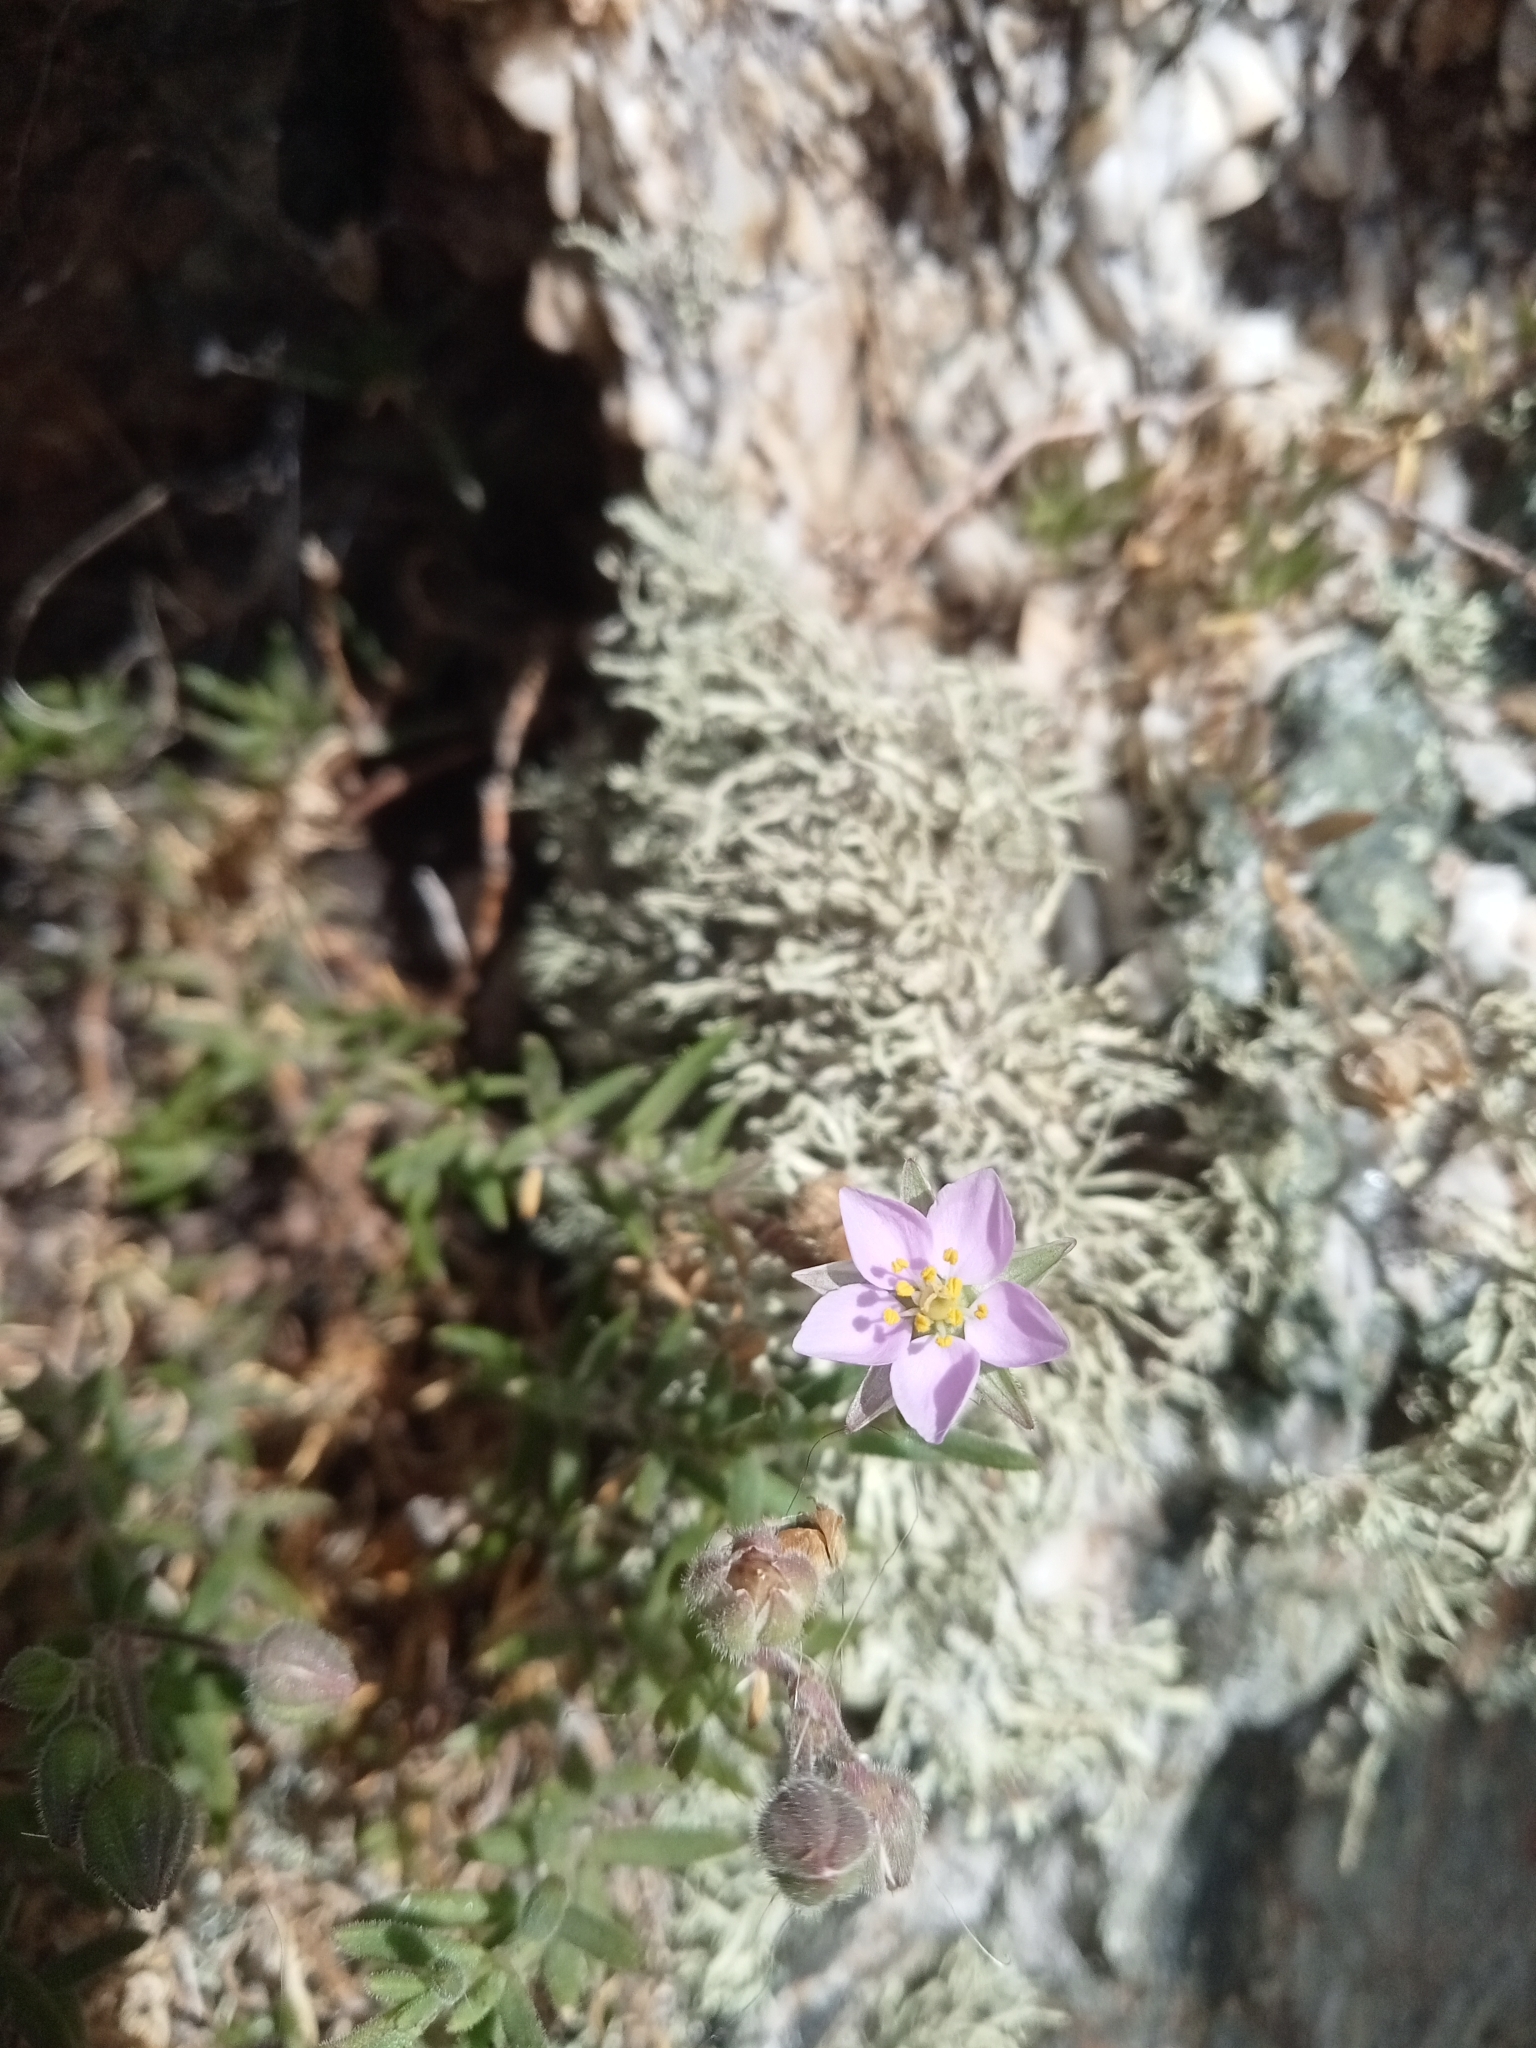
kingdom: Plantae
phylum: Tracheophyta
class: Magnoliopsida
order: Caryophyllales
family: Caryophyllaceae
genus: Spergularia
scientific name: Spergularia rupicola
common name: Cliff sand-spurrey
